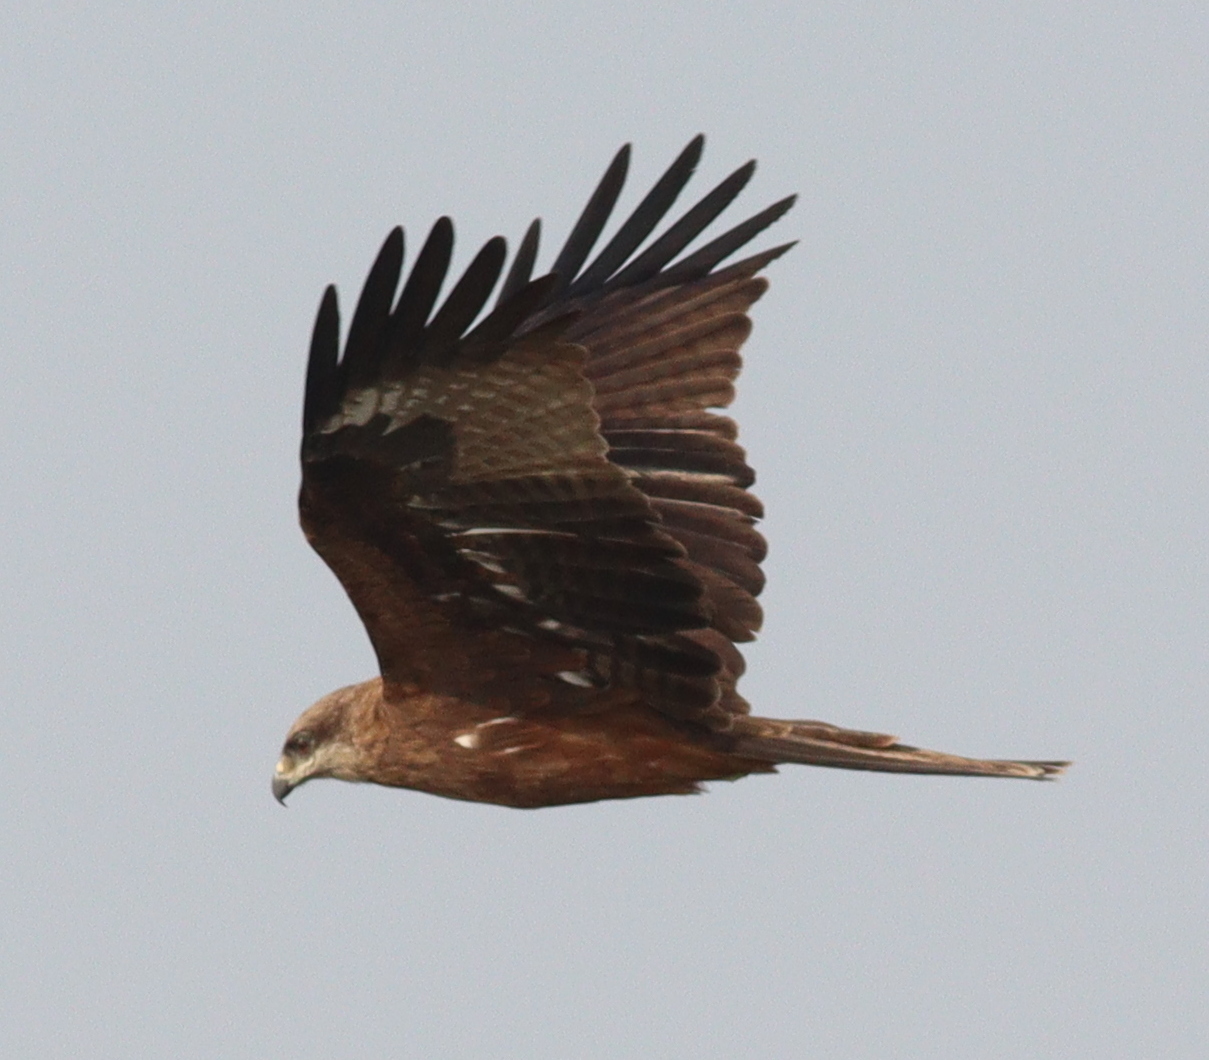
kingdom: Animalia
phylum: Chordata
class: Aves
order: Accipitriformes
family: Accipitridae
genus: Milvus
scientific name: Milvus migrans
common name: Black kite
